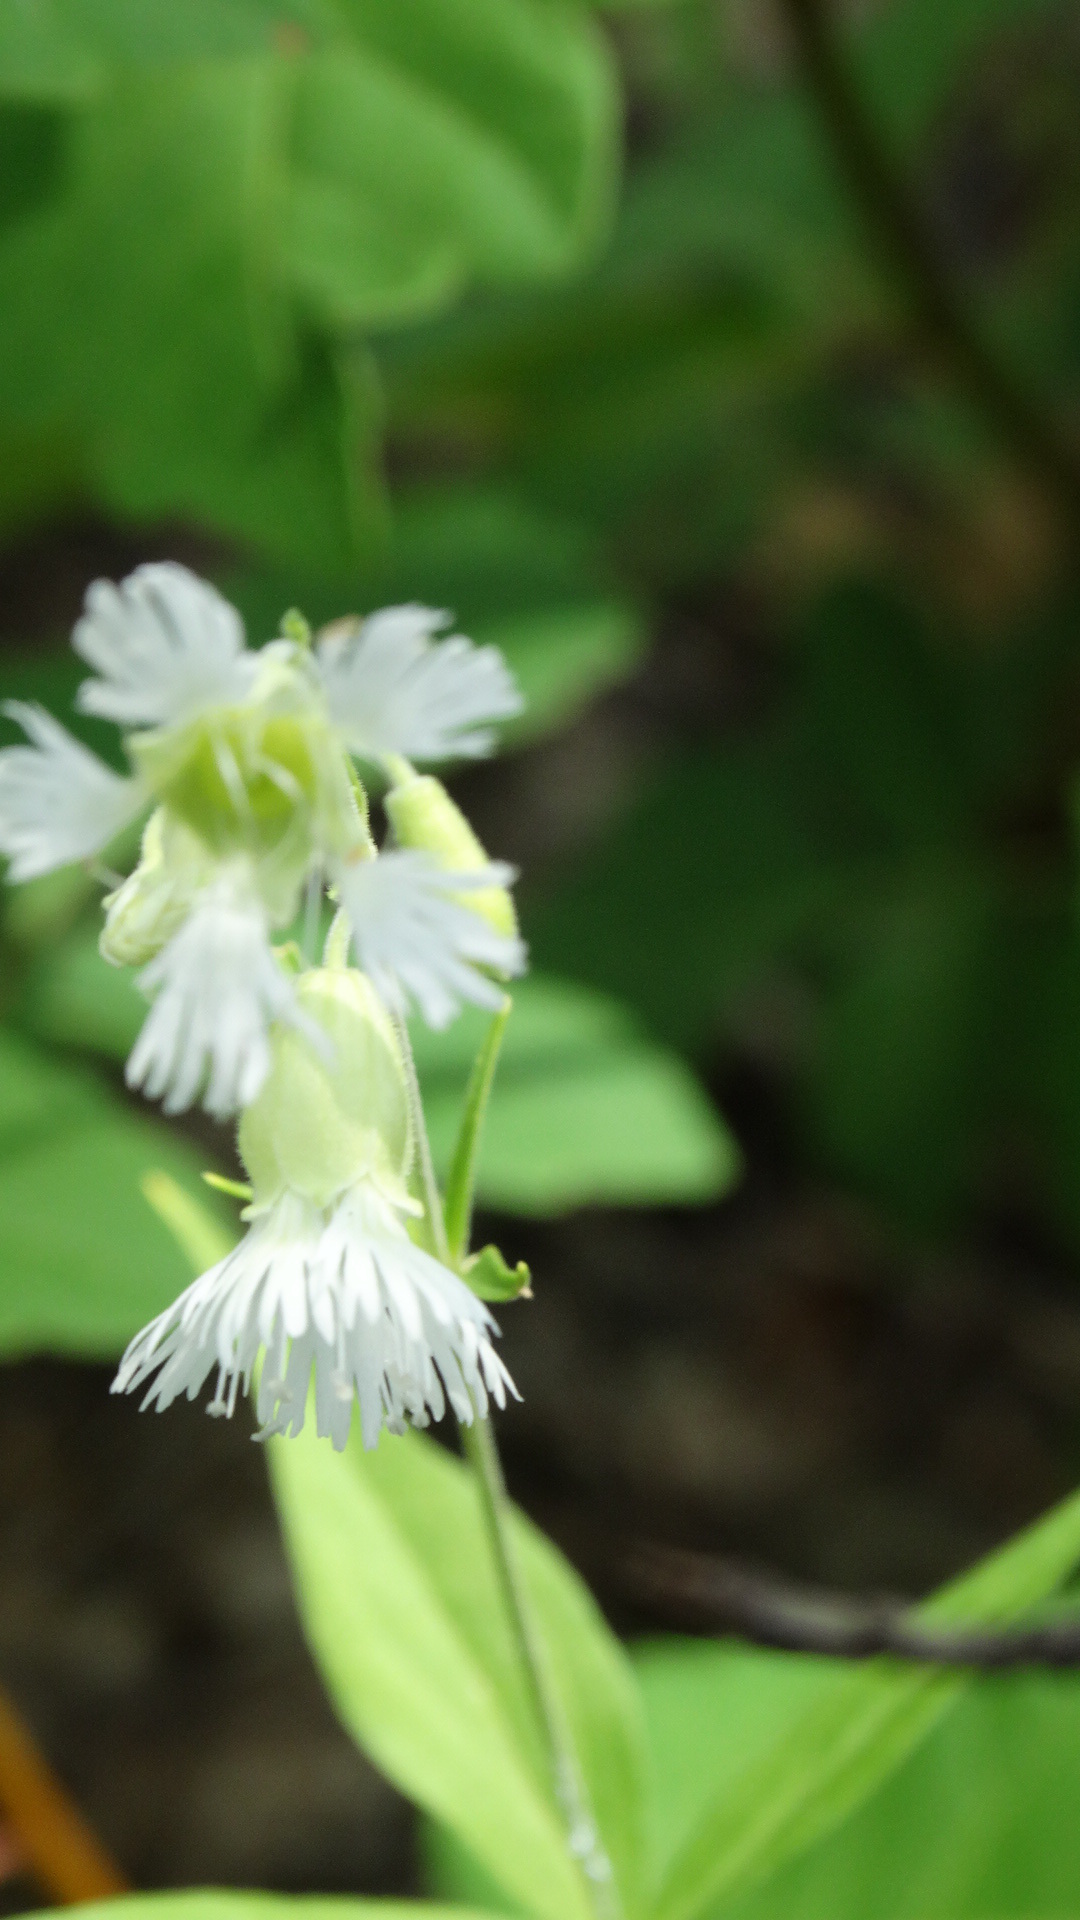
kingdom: Plantae
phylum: Tracheophyta
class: Magnoliopsida
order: Caryophyllales
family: Caryophyllaceae
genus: Silene
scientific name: Silene stellata
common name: Starry campion
